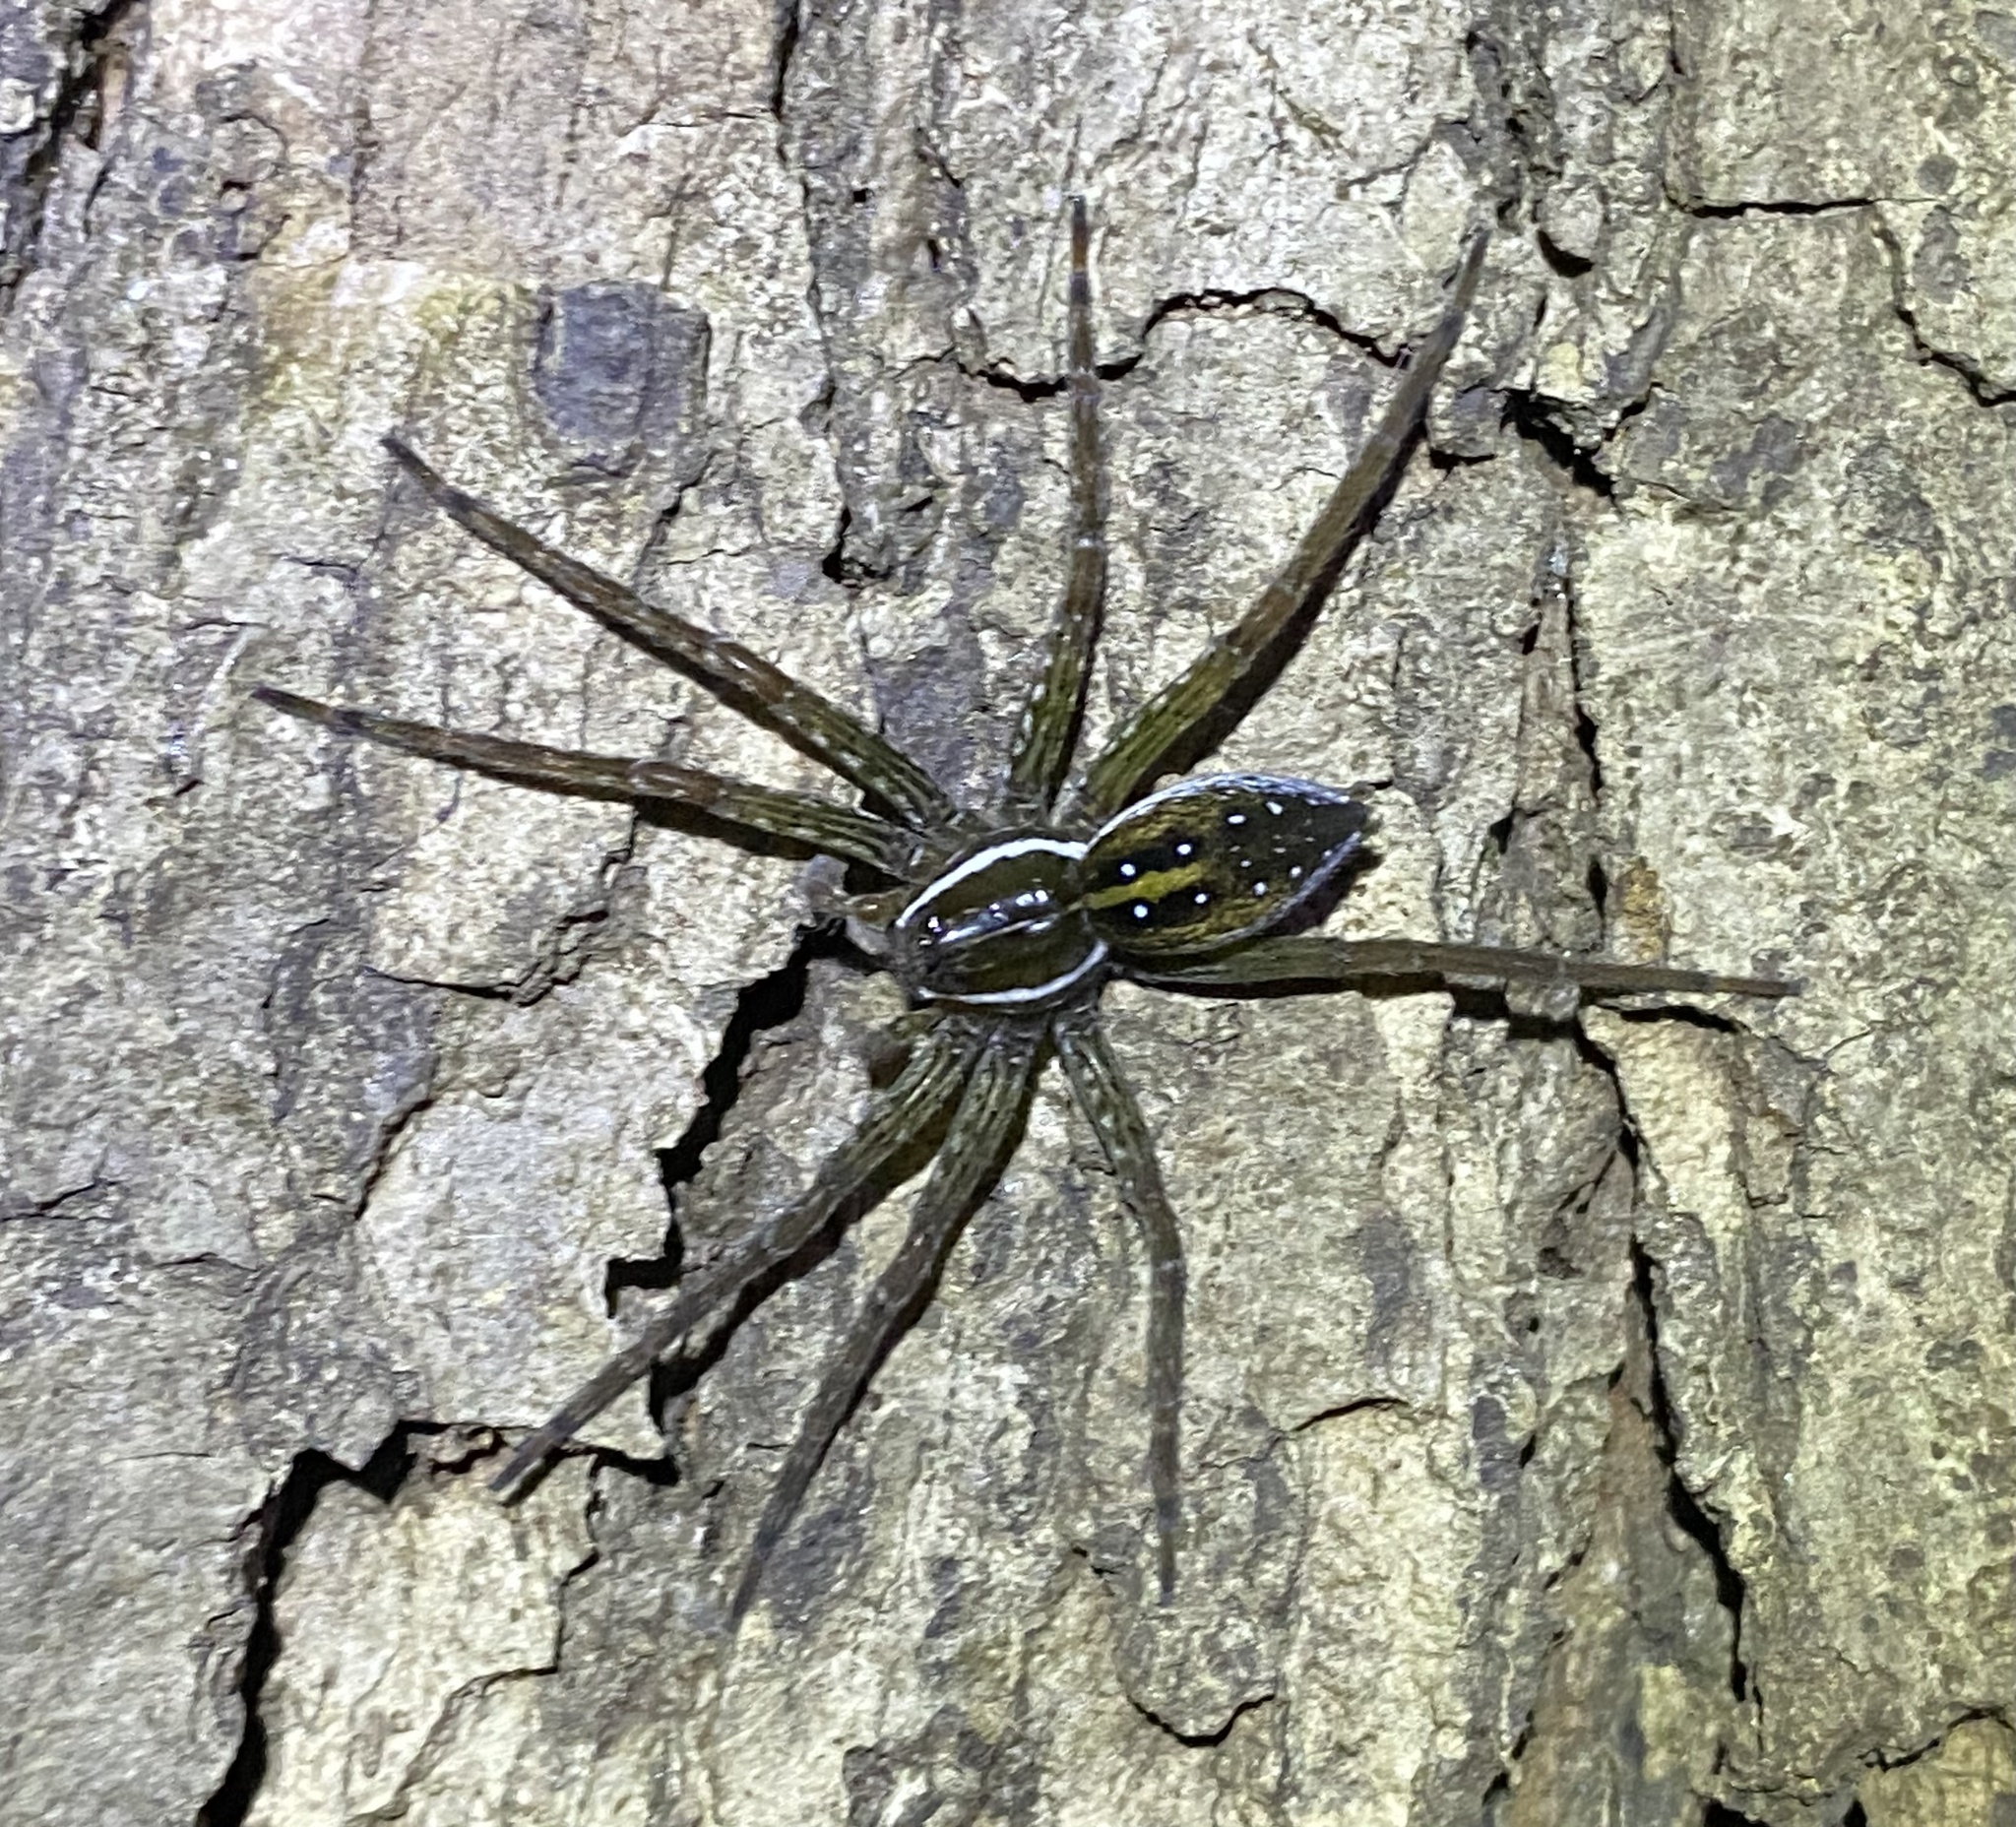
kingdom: Animalia
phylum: Arthropoda
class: Arachnida
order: Araneae
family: Pisauridae
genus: Dolomedes
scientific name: Dolomedes triton
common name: Six-spotted fishing spider
